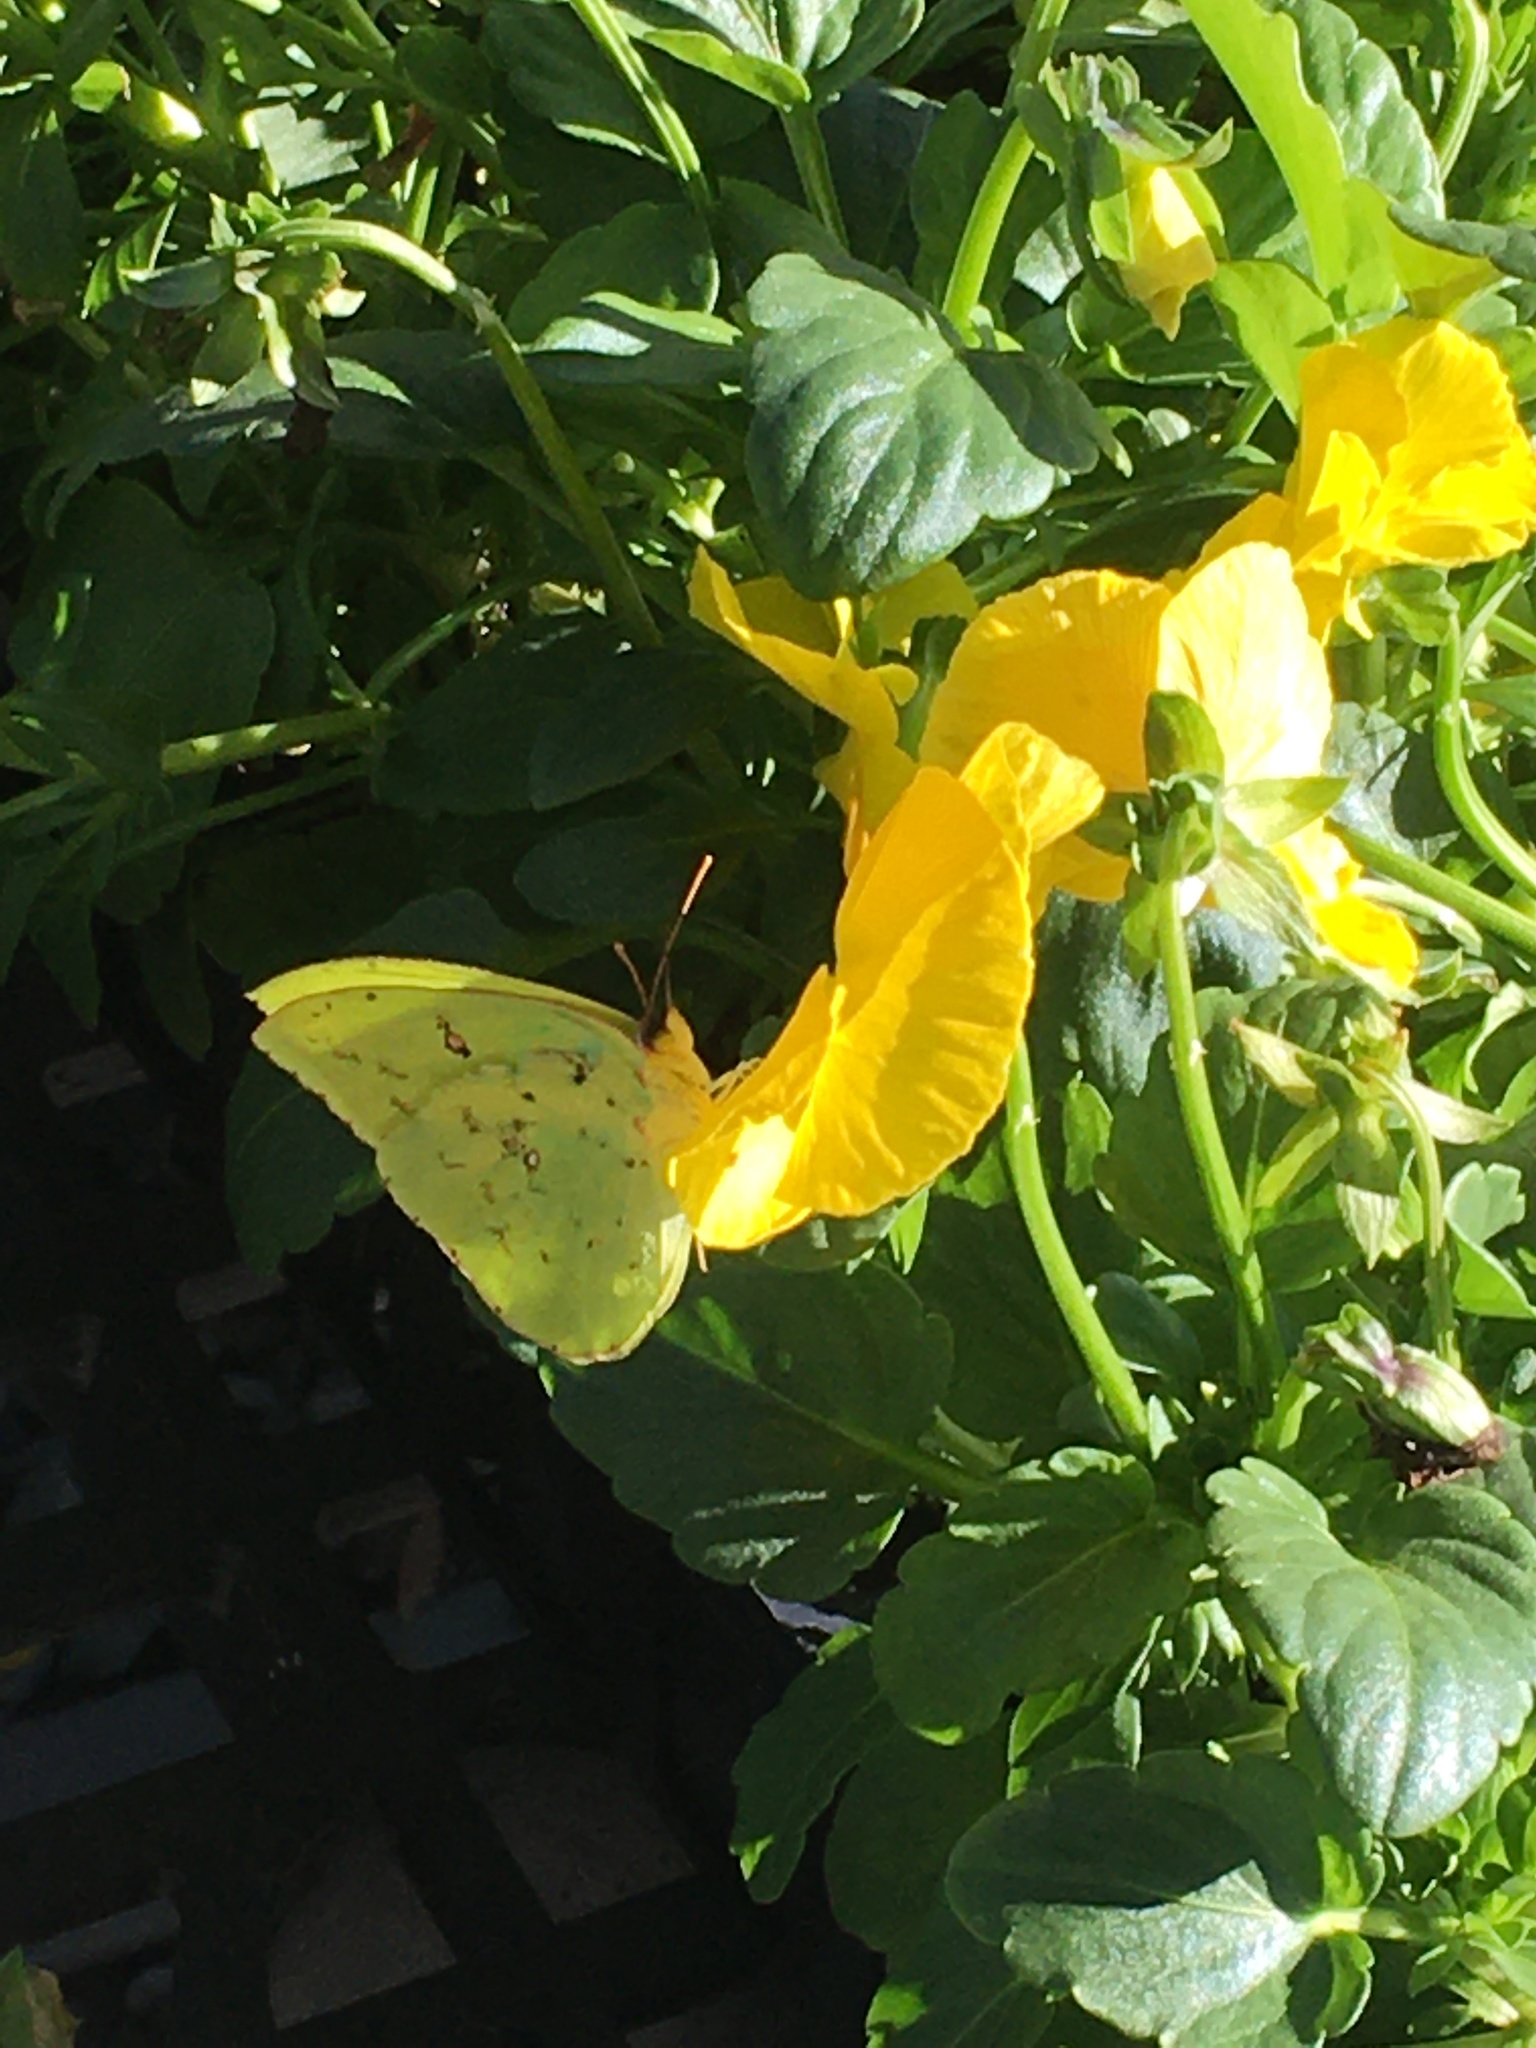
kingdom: Animalia
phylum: Arthropoda
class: Insecta
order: Lepidoptera
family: Pieridae
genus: Phoebis
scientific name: Phoebis sennae
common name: Cloudless sulphur
